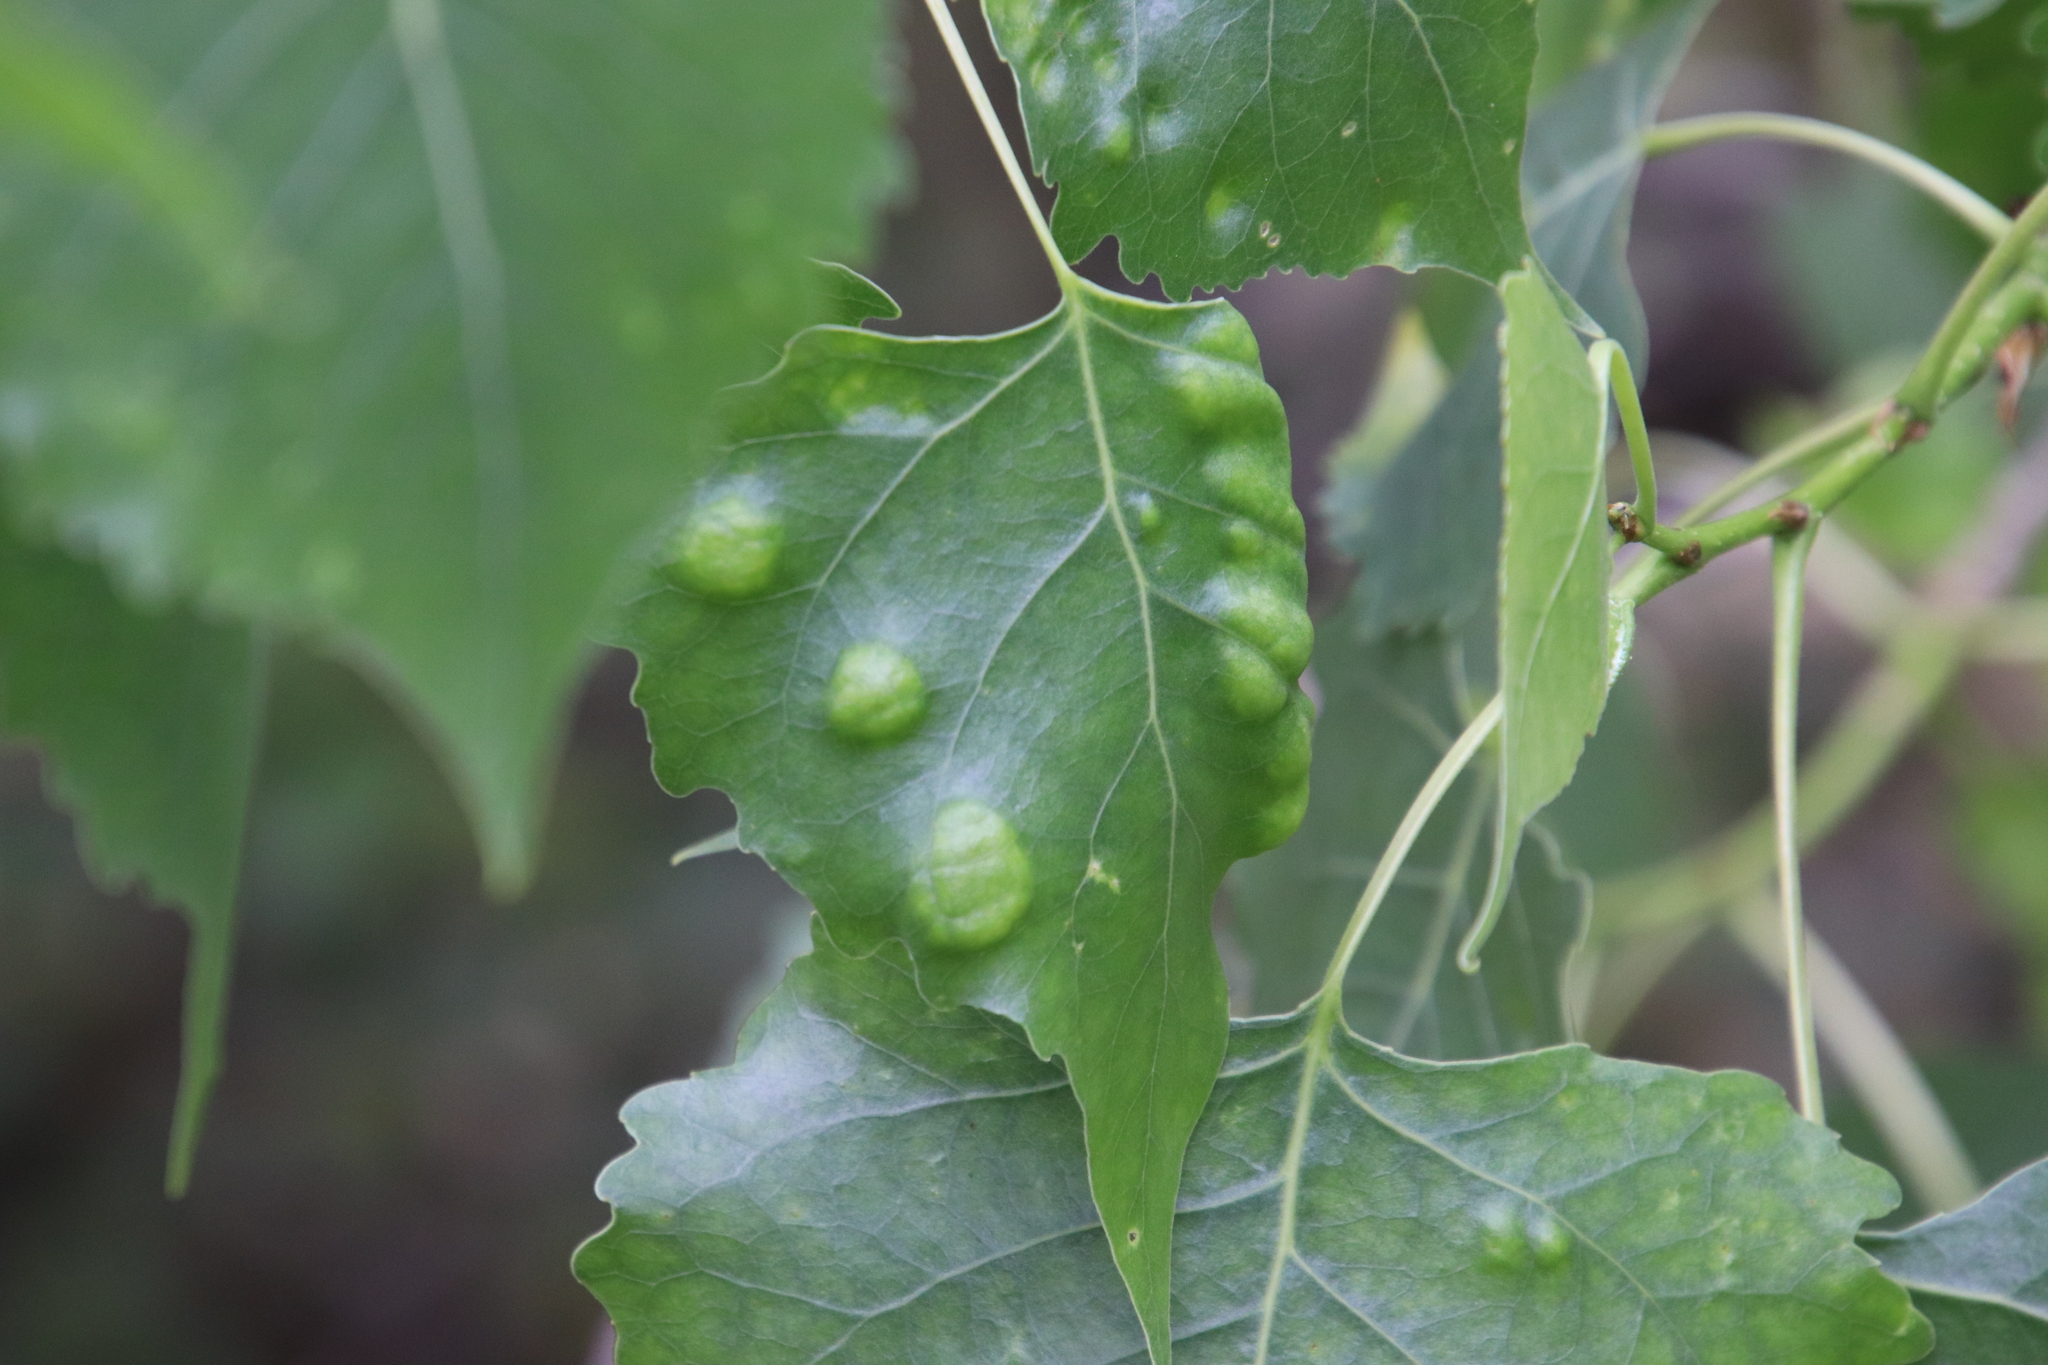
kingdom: Fungi
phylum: Ascomycota
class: Taphrinomycetes
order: Taphrinales
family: Taphrinaceae
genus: Taphrina
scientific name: Taphrina populi-salicis
